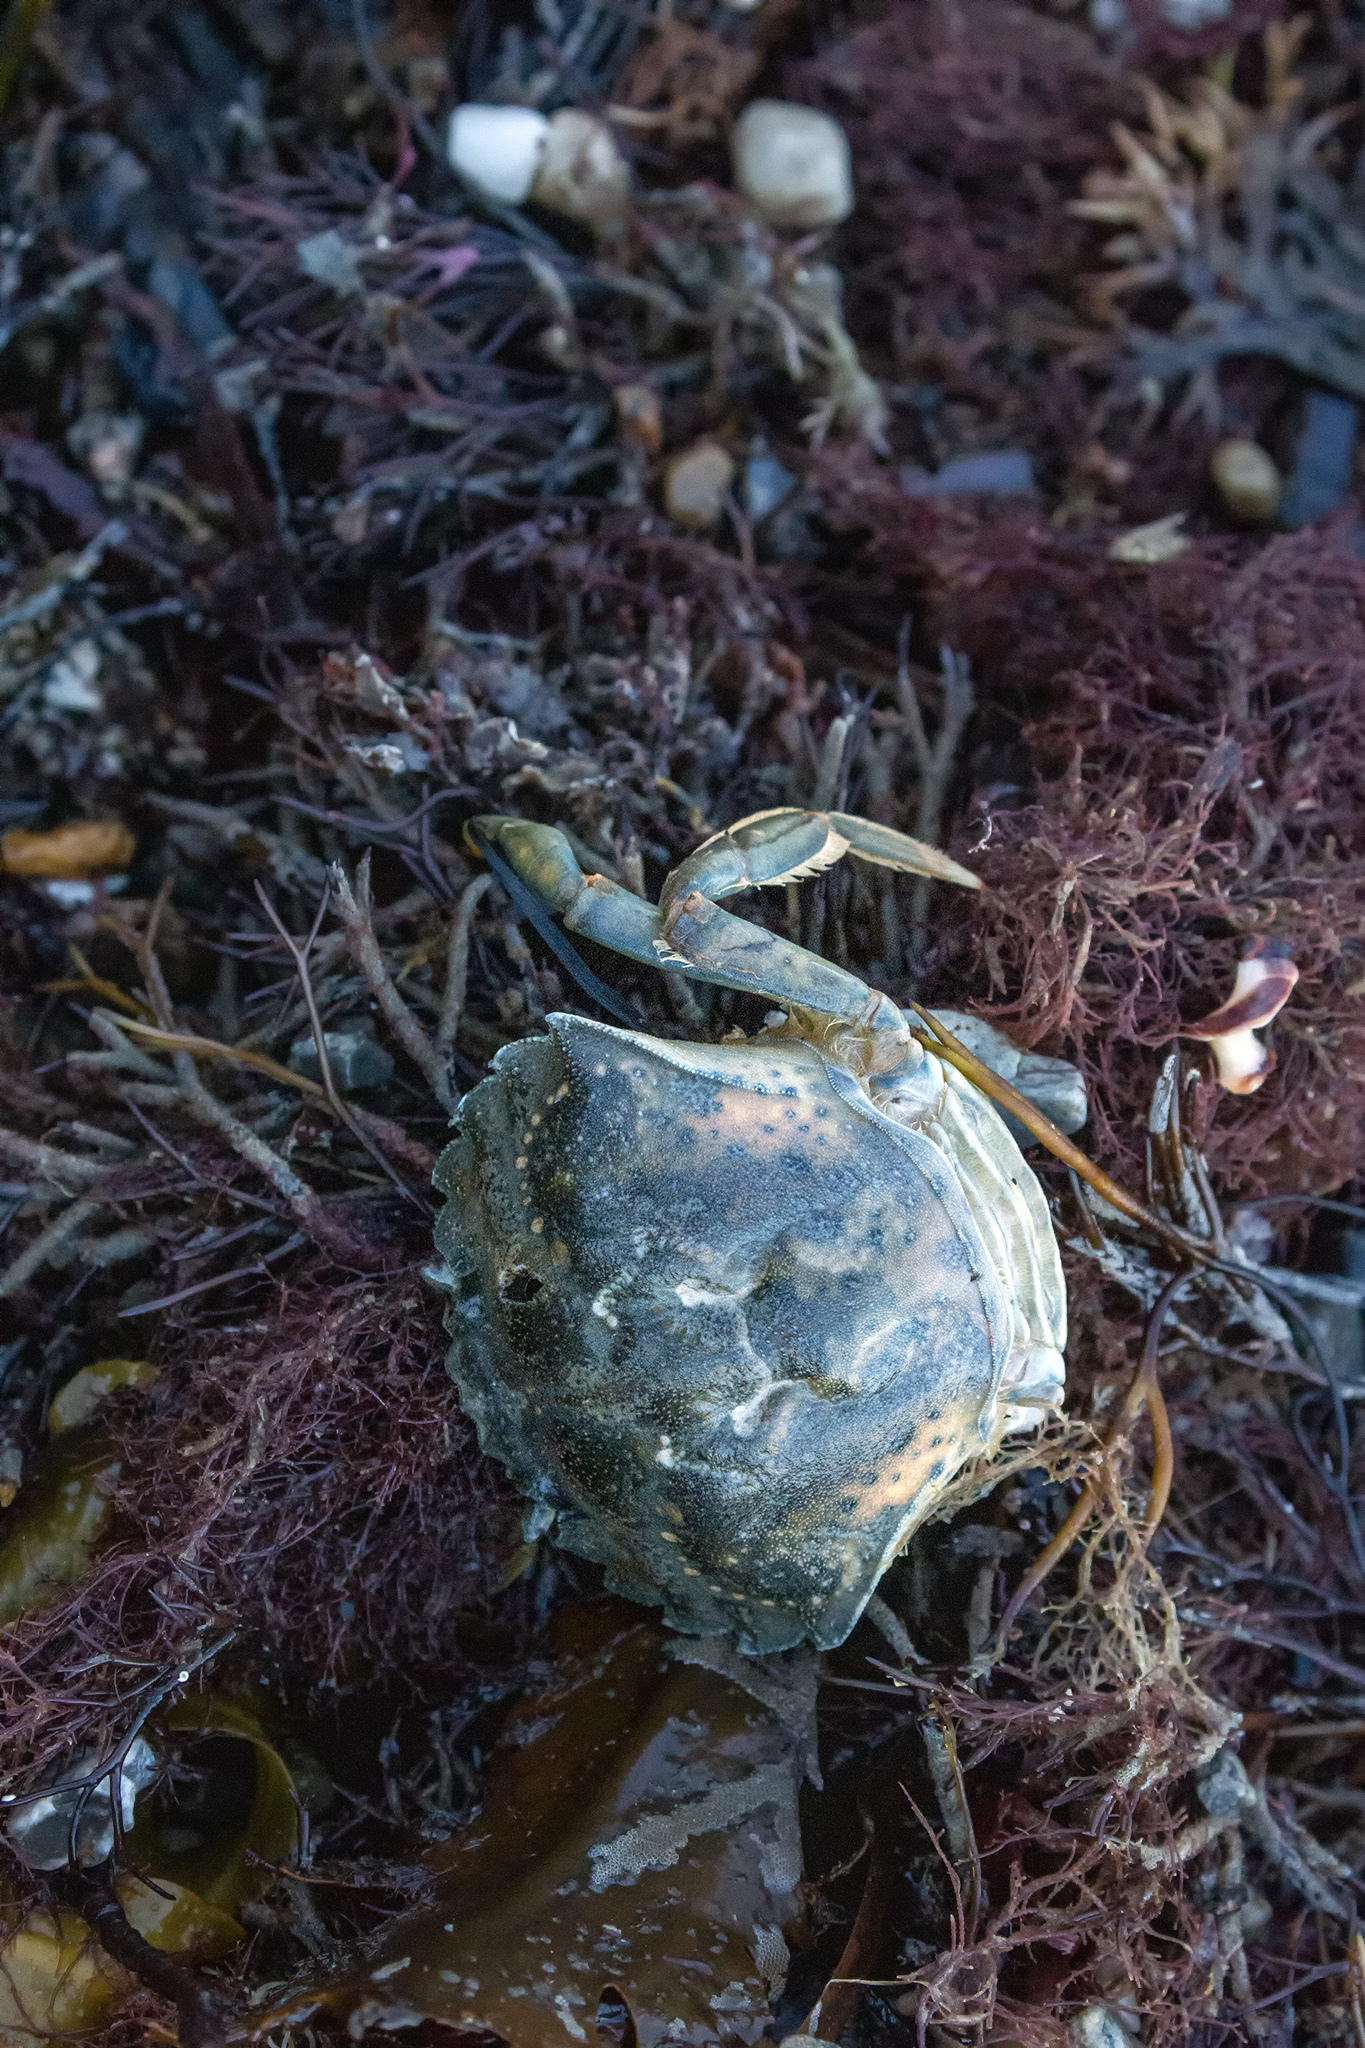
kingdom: Animalia
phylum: Arthropoda
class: Malacostraca
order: Decapoda
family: Carcinidae
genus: Carcinus
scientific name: Carcinus maenas
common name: European green crab
